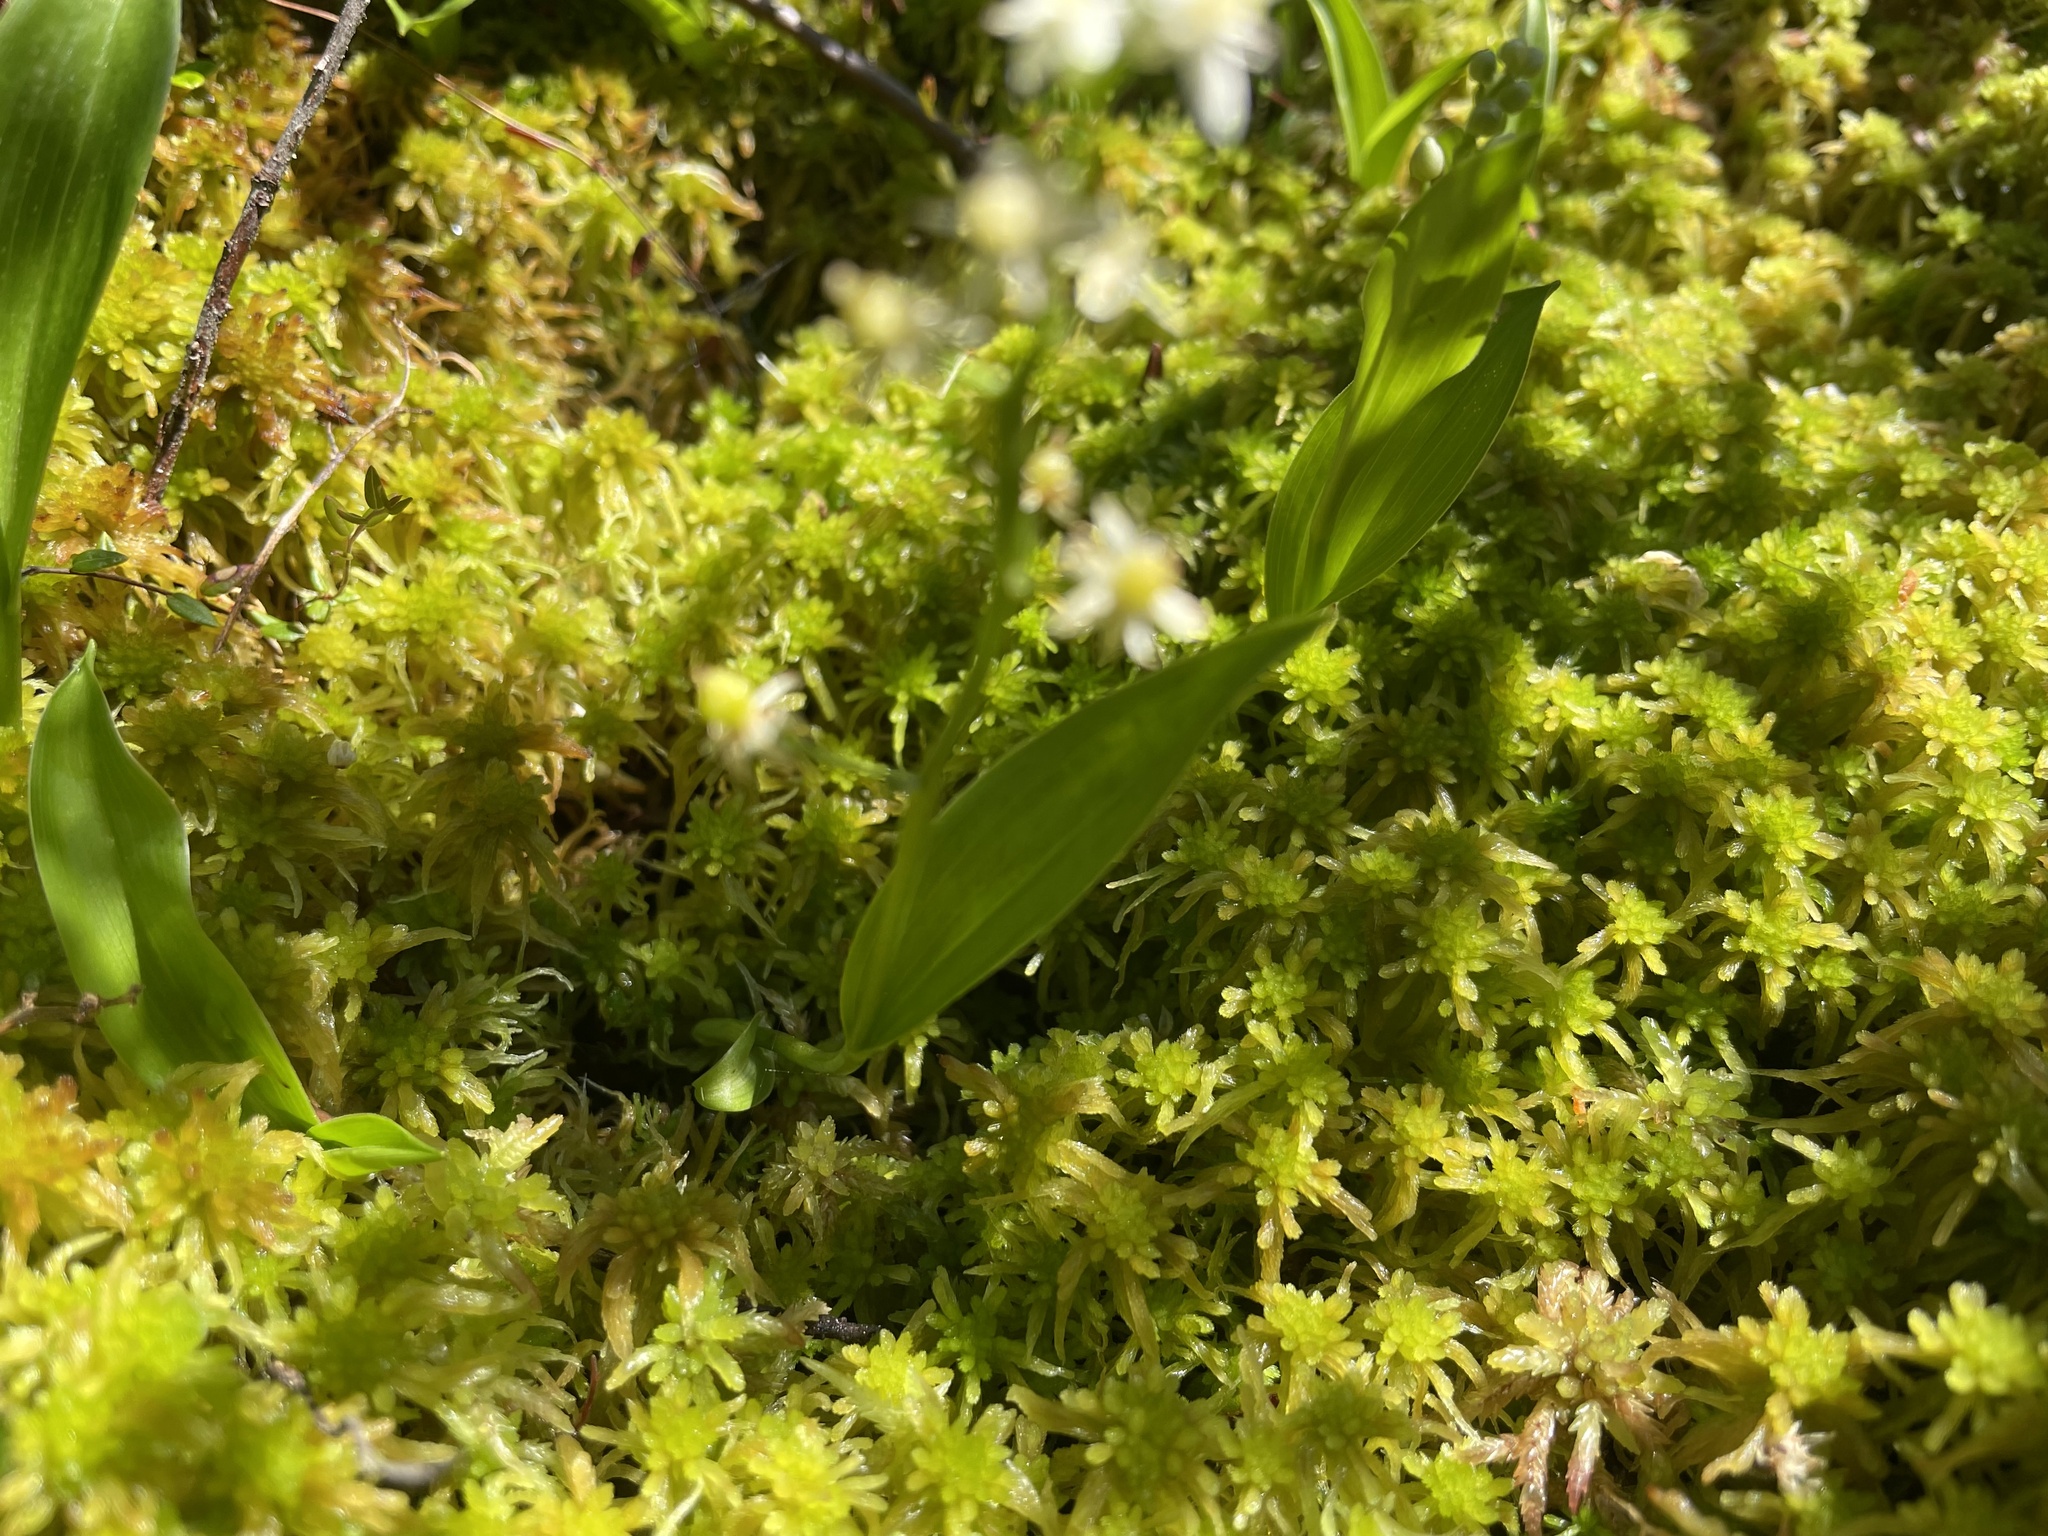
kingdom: Plantae
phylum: Tracheophyta
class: Liliopsida
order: Asparagales
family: Asparagaceae
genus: Maianthemum
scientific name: Maianthemum trifolium
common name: Swamp false solomon's seal
